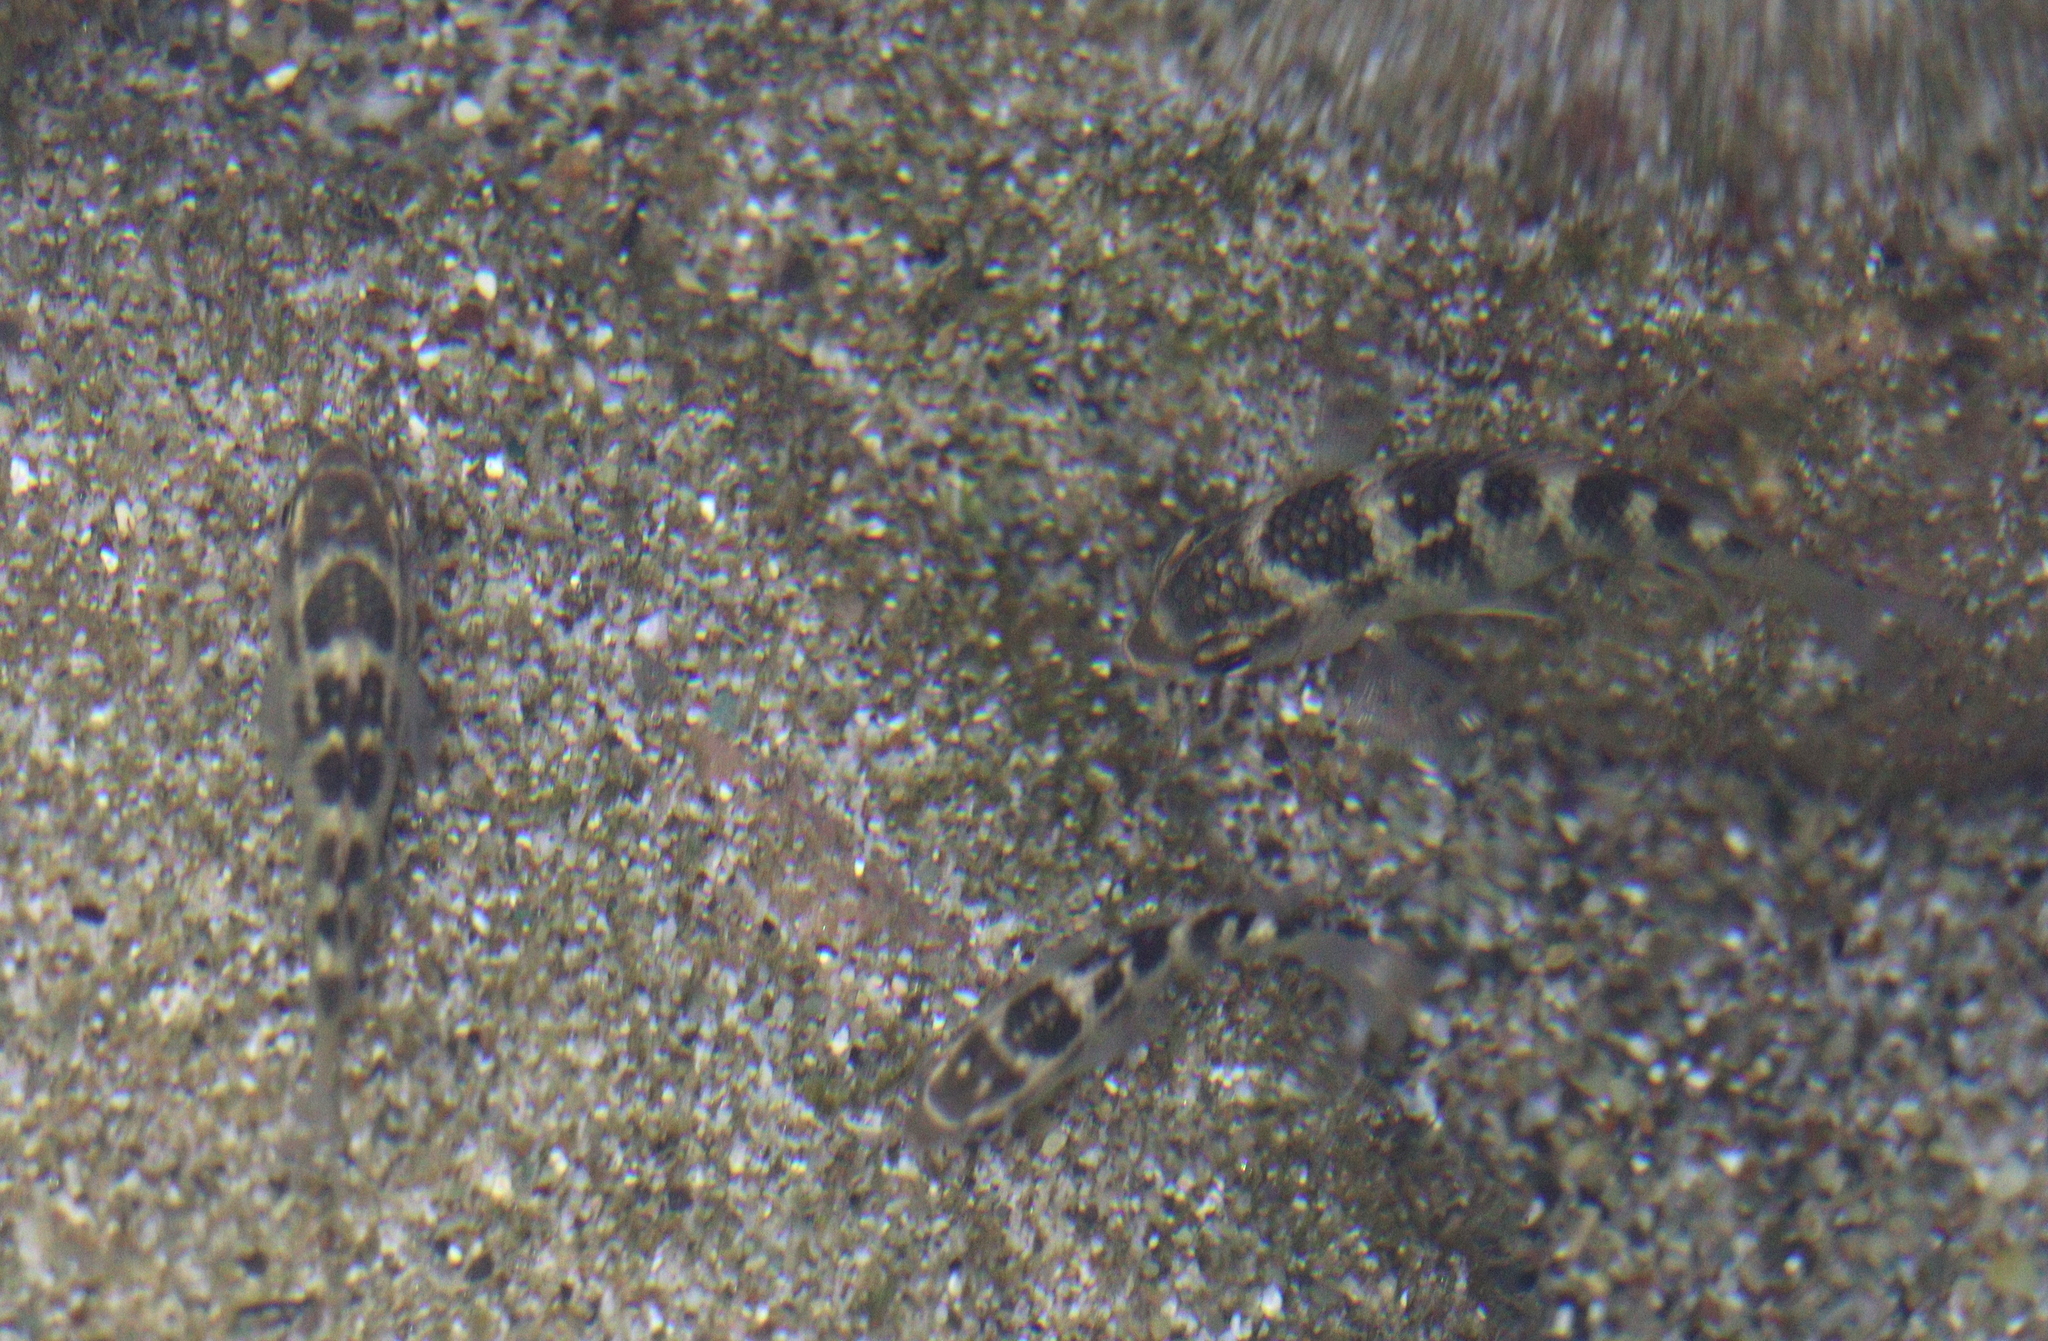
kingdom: Animalia
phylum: Chordata
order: Perciformes
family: Pomacentridae
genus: Abudefduf
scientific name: Abudefduf concolor
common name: Dusky seargent
